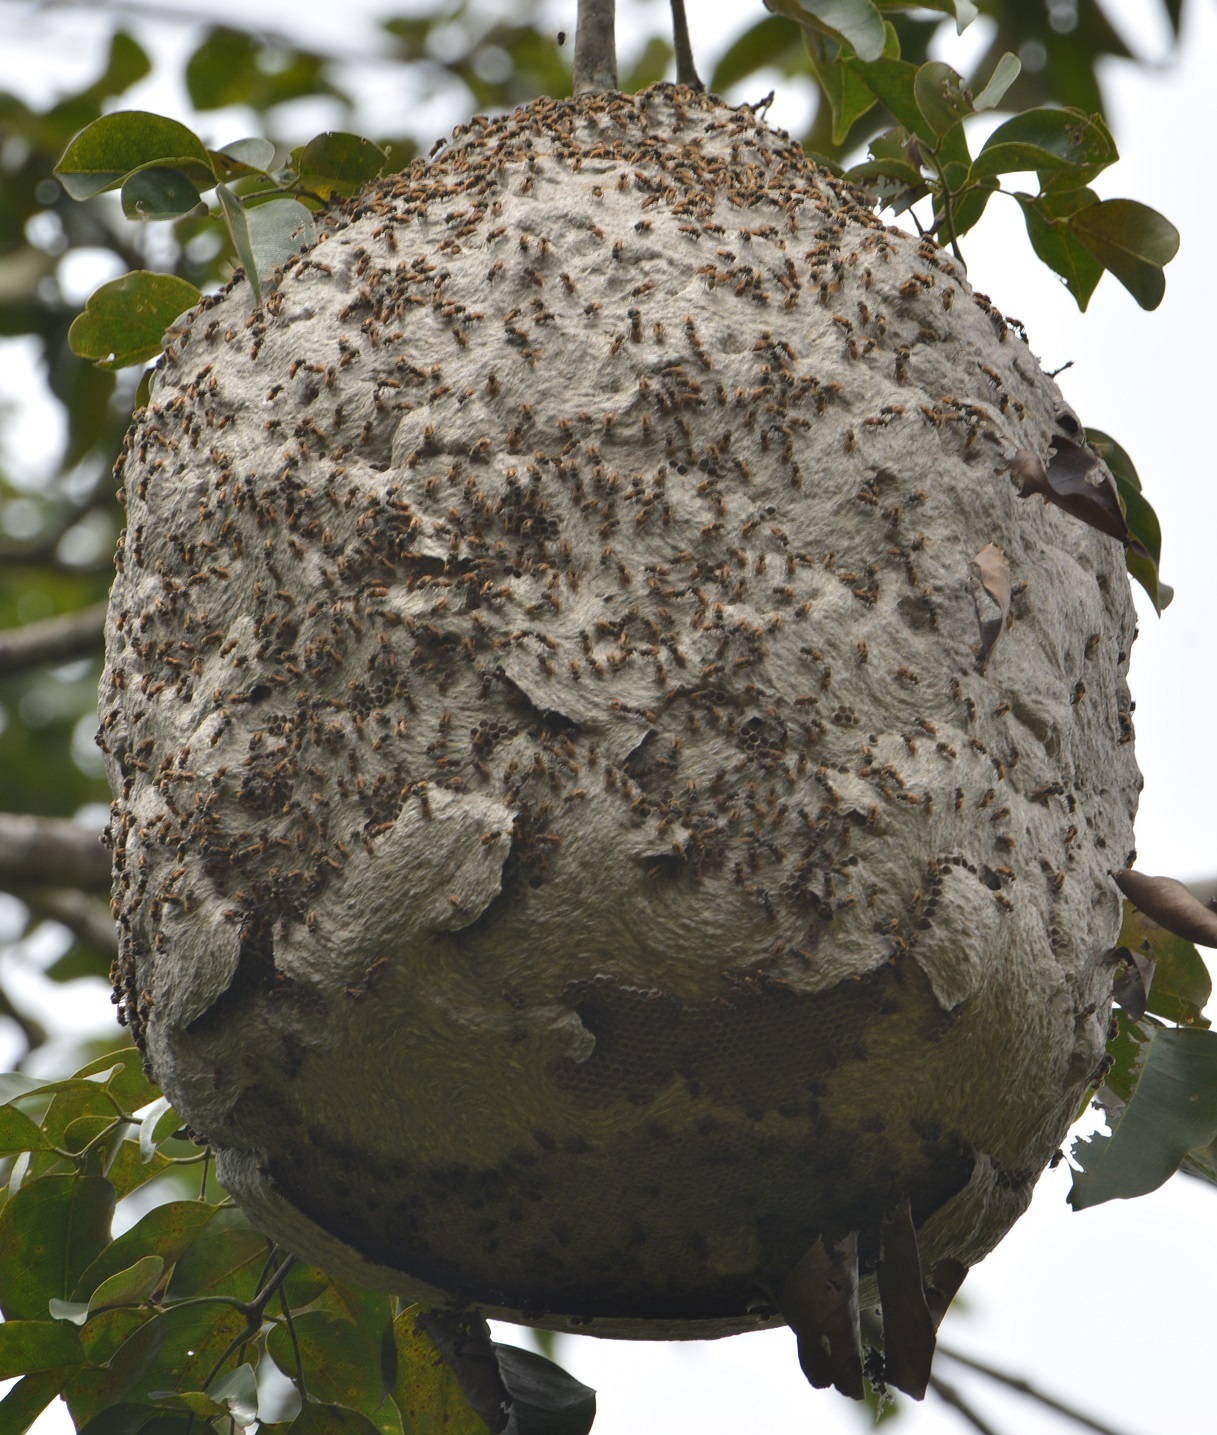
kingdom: Animalia
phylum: Arthropoda
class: Insecta
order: Hymenoptera
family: Vespidae
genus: Brachygastra
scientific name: Brachygastra mellifica
